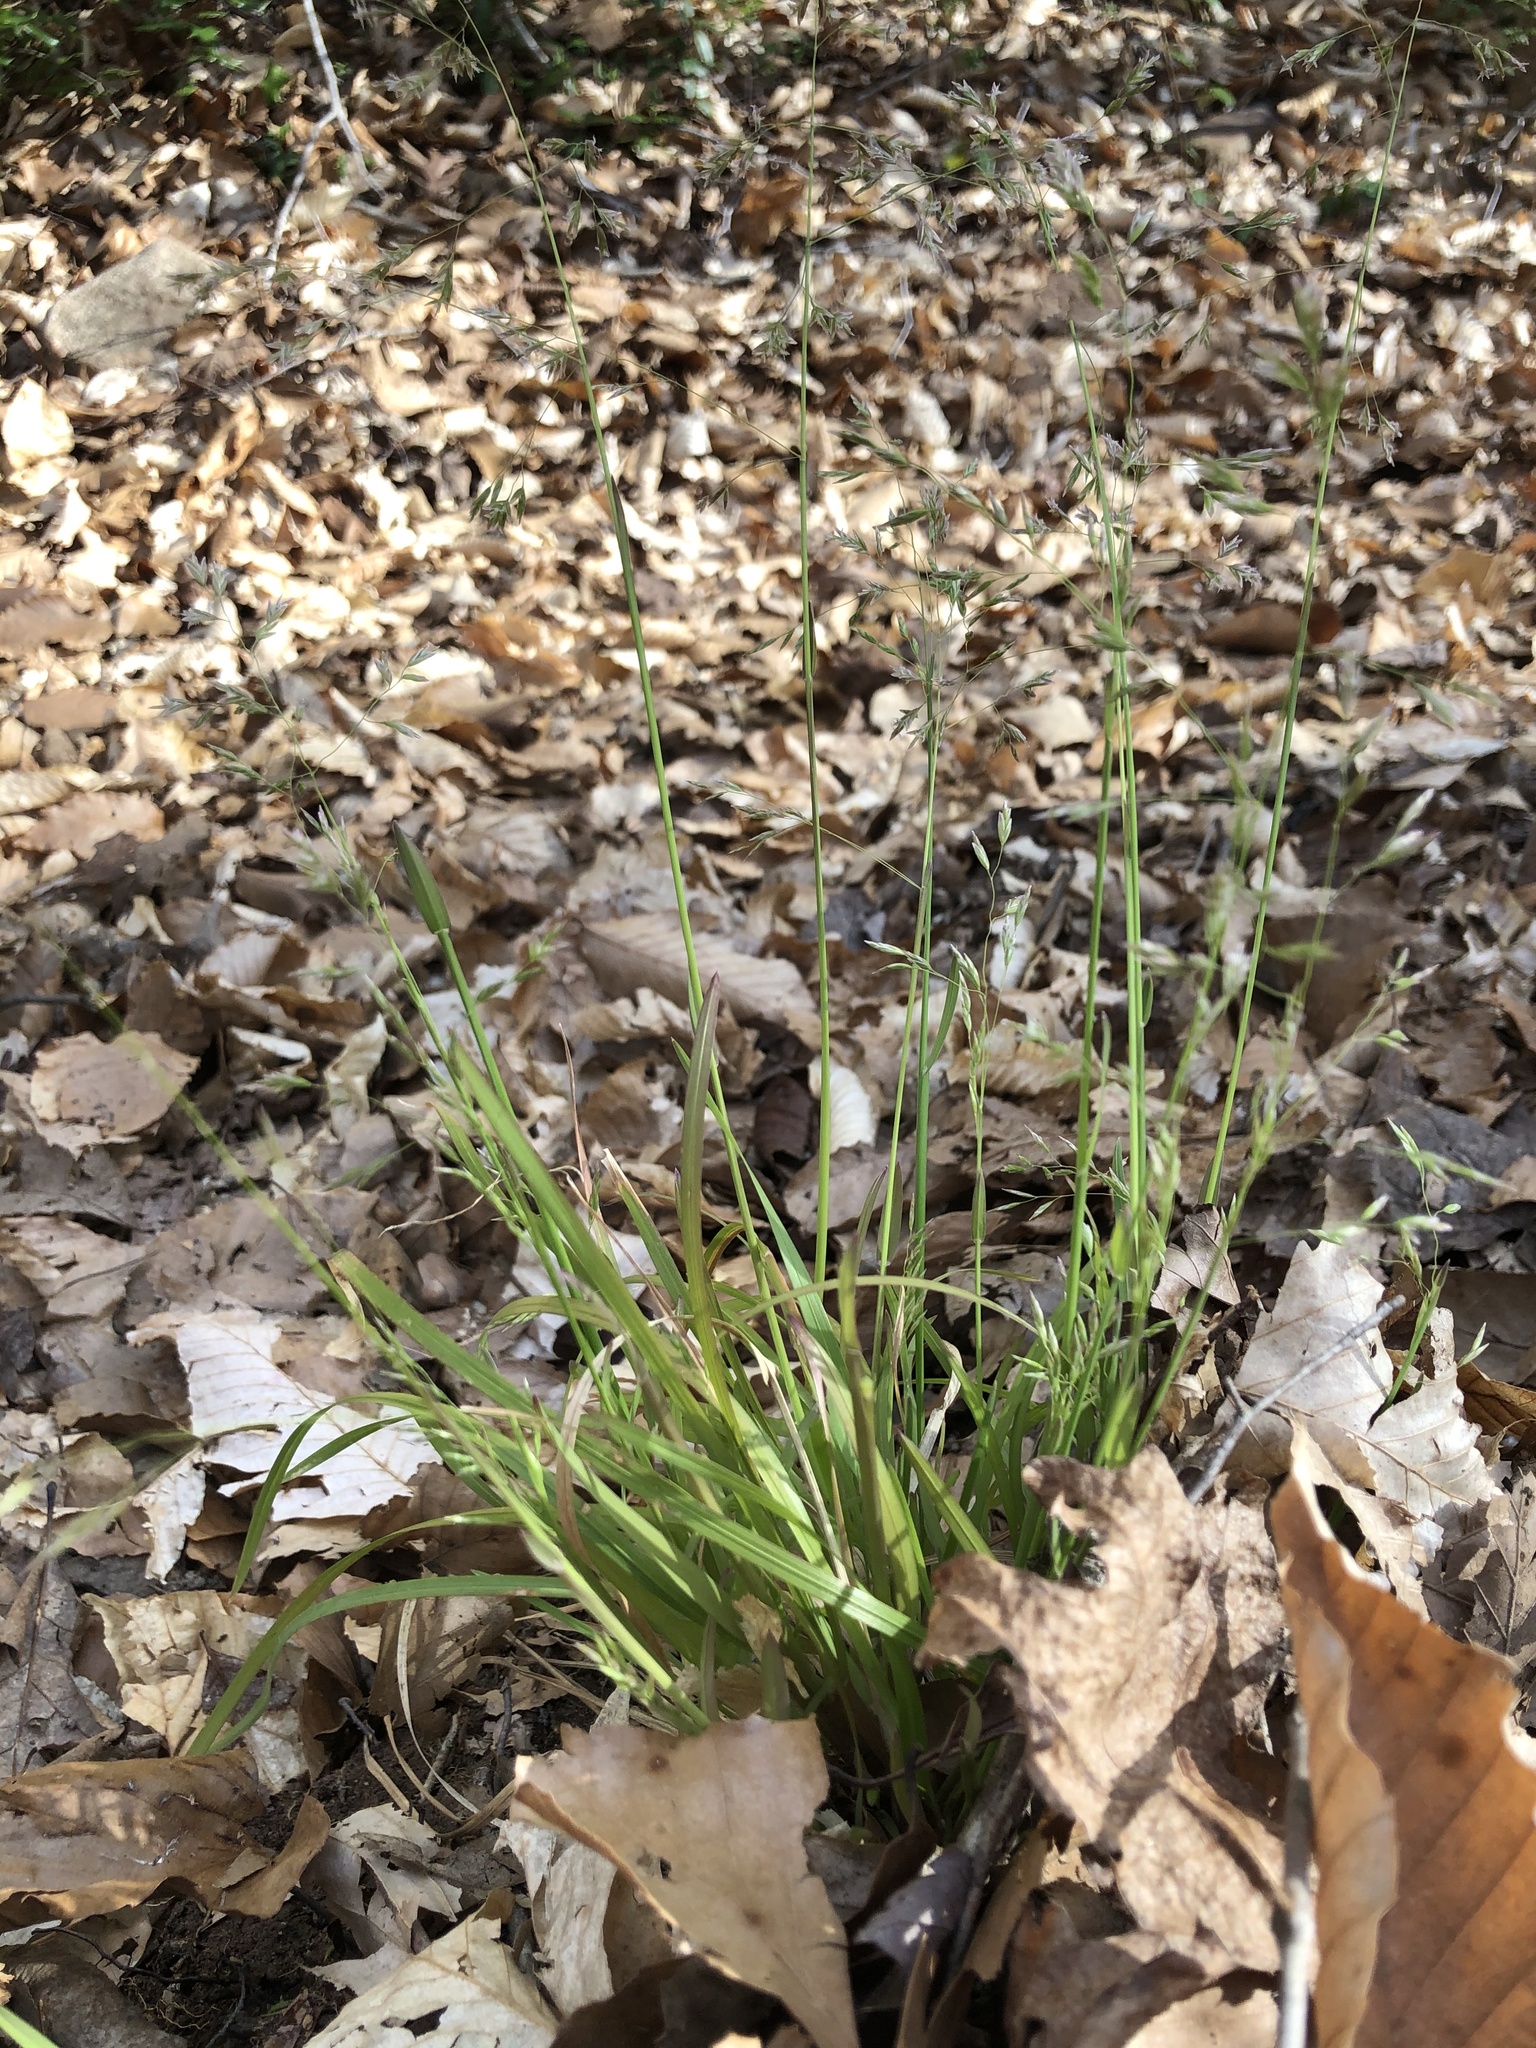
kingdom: Plantae
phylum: Tracheophyta
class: Liliopsida
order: Poales
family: Poaceae
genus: Poa
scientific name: Poa cuspidata
